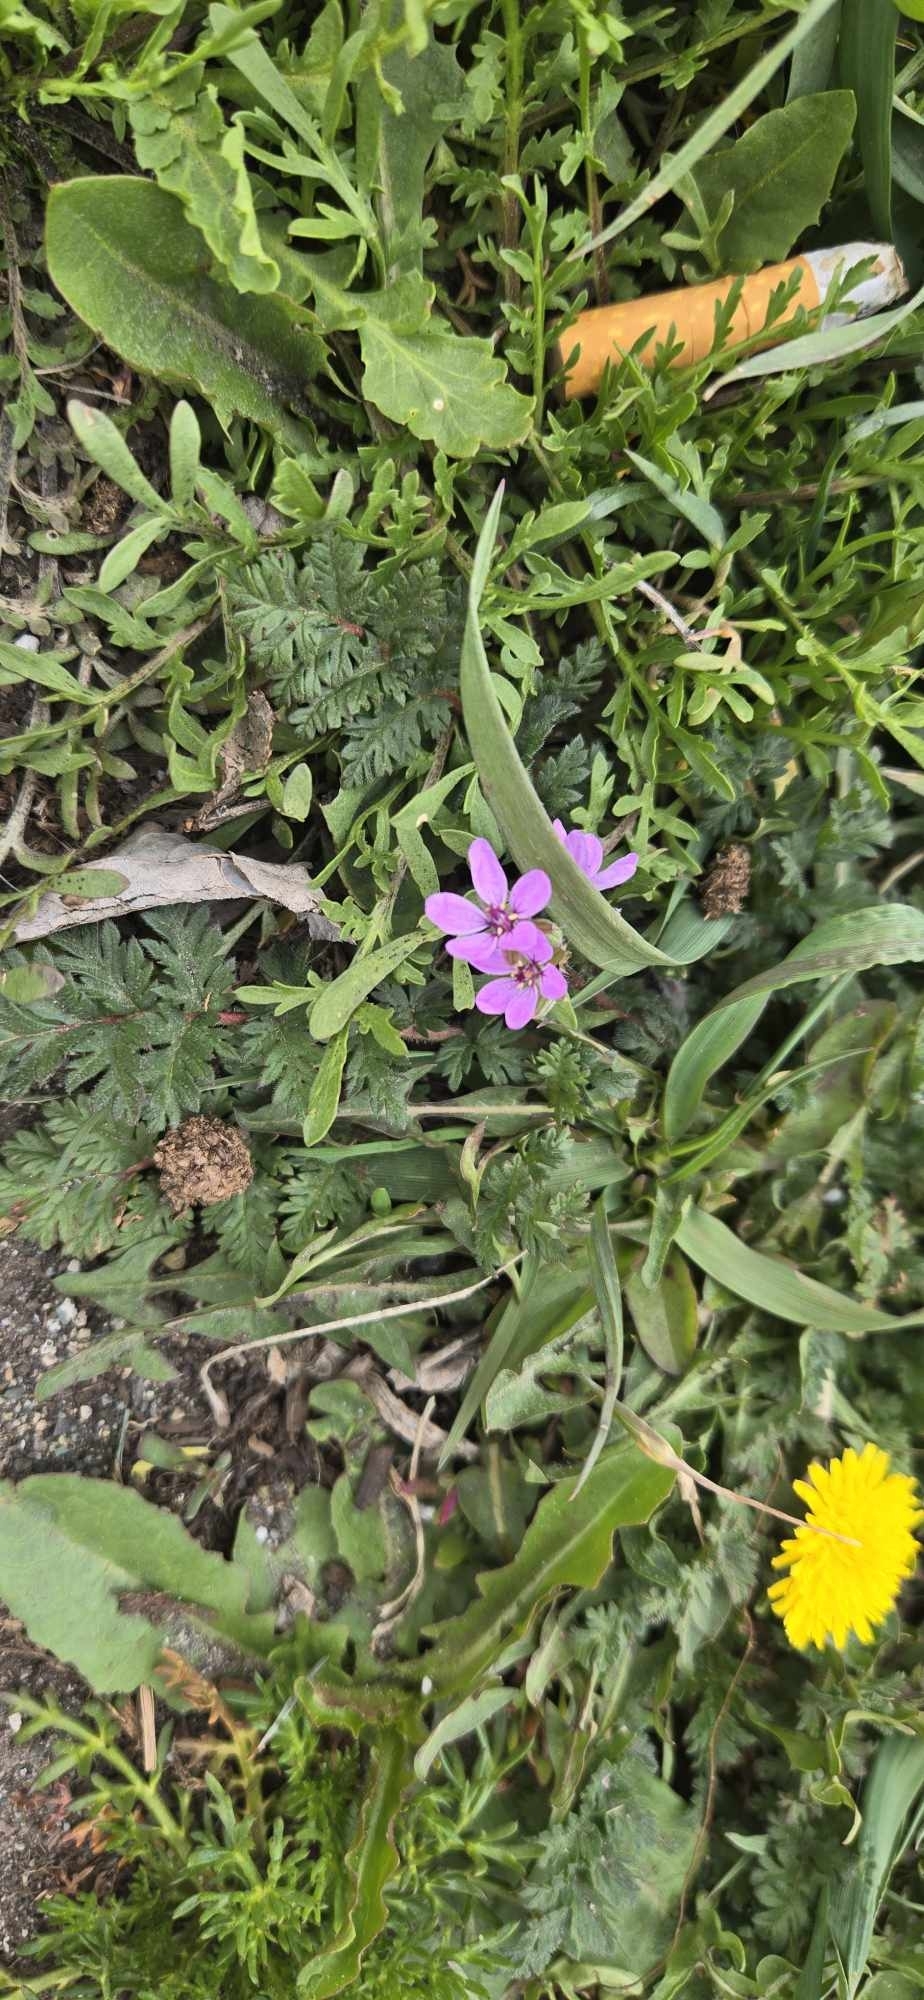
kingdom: Plantae
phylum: Tracheophyta
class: Magnoliopsida
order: Geraniales
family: Geraniaceae
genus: Erodium
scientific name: Erodium cicutarium
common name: Common stork's-bill
